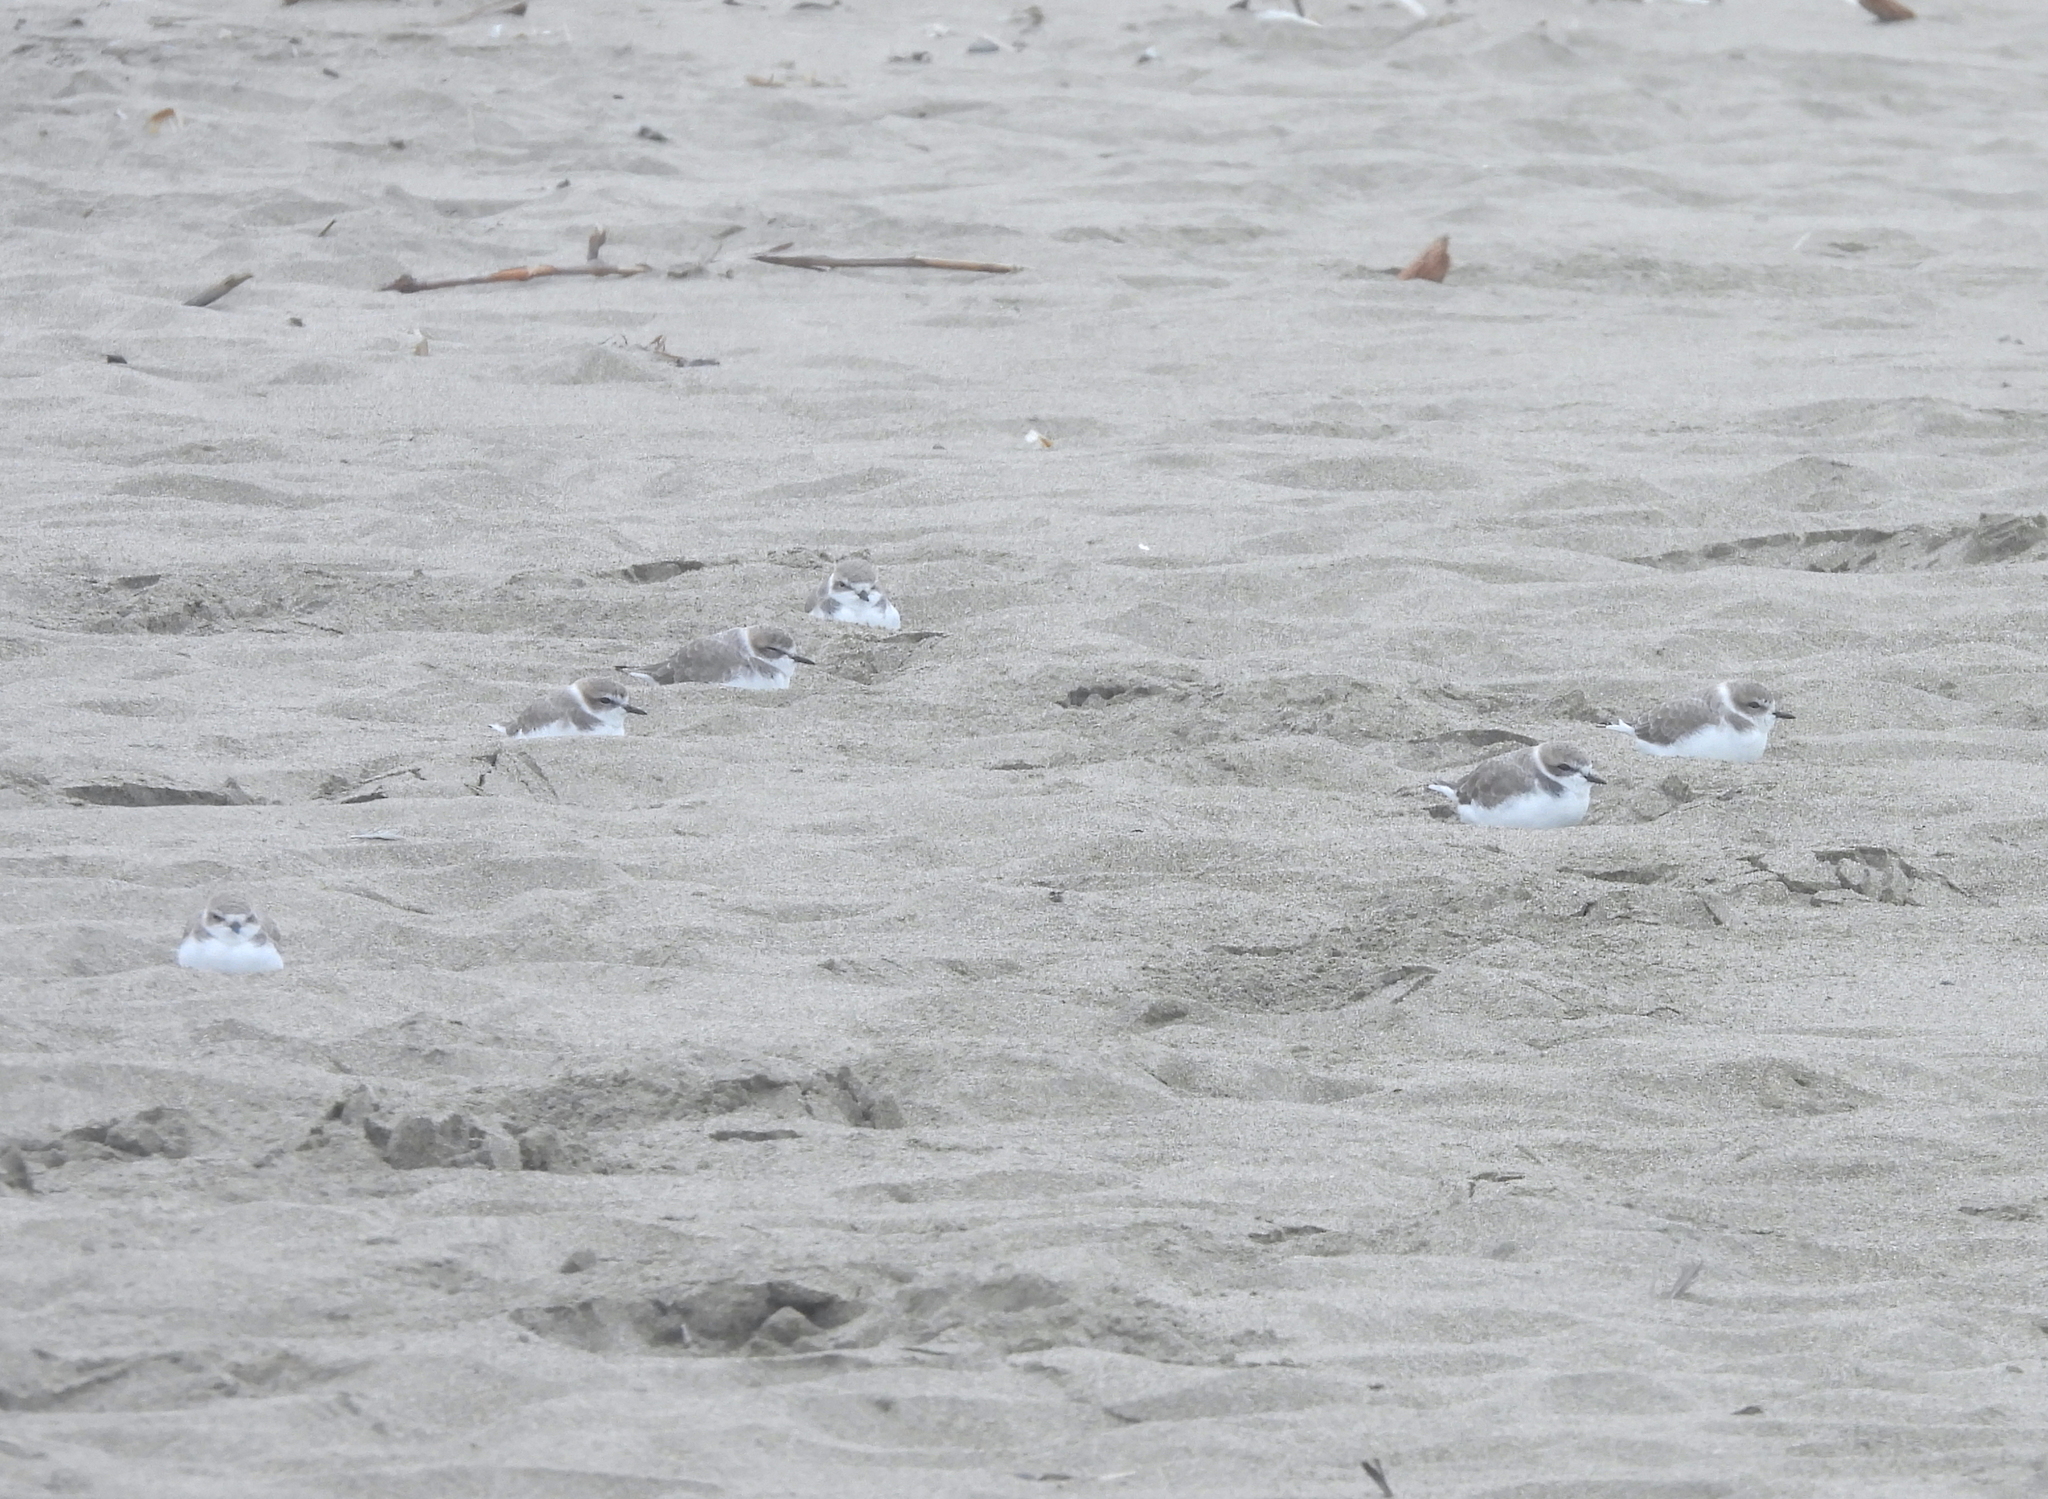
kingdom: Animalia
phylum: Chordata
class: Aves
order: Charadriiformes
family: Charadriidae
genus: Anarhynchus
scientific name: Anarhynchus
